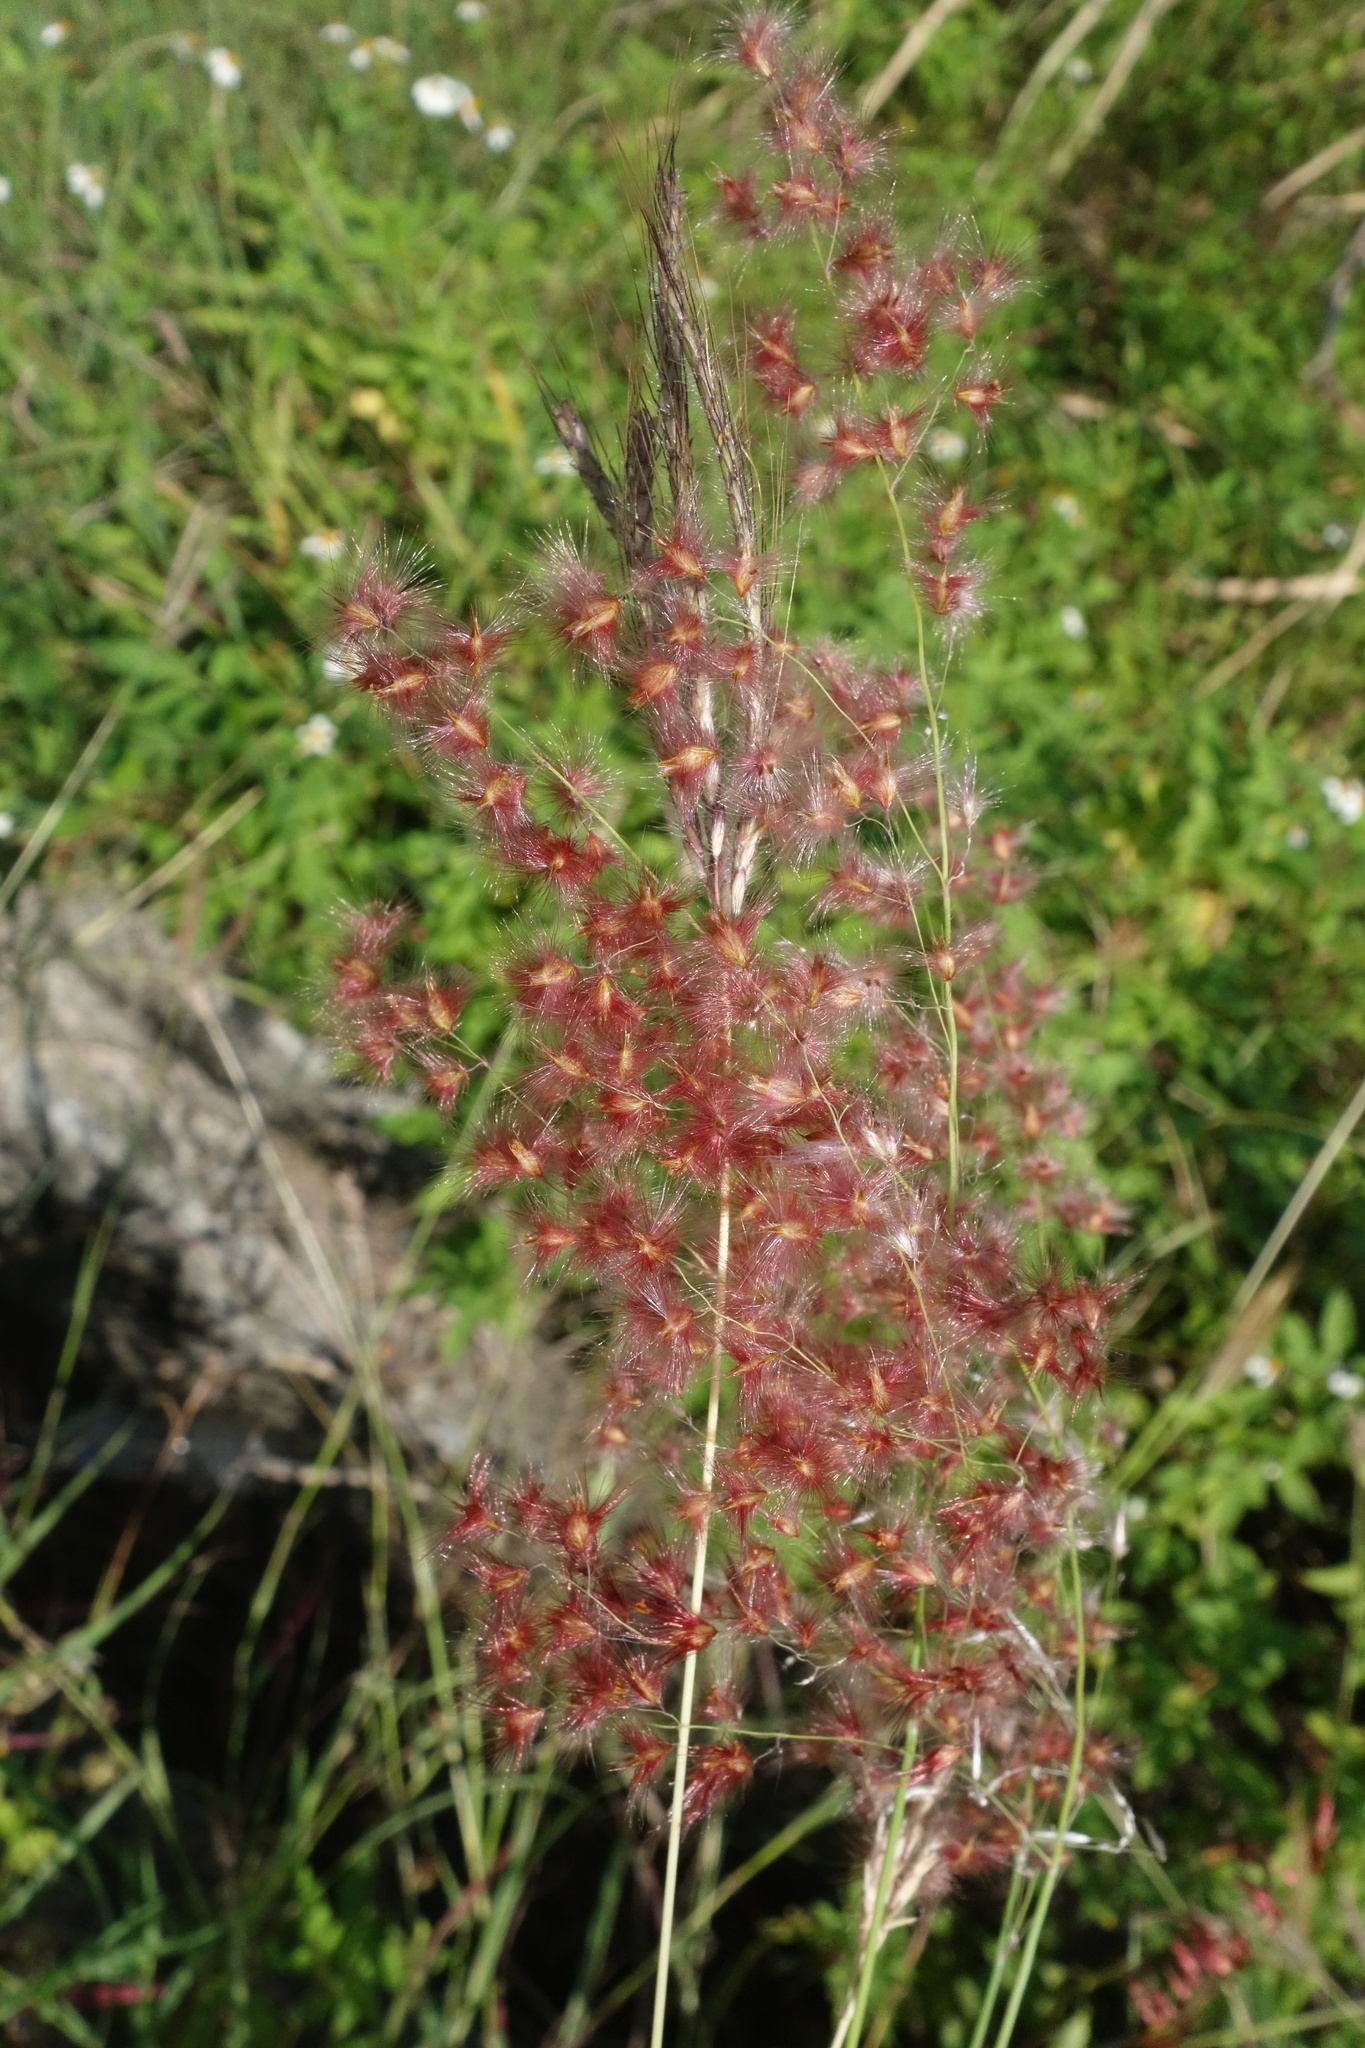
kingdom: Plantae
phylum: Tracheophyta
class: Liliopsida
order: Poales
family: Poaceae
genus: Melinis
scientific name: Melinis repens
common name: Rose natal grass
